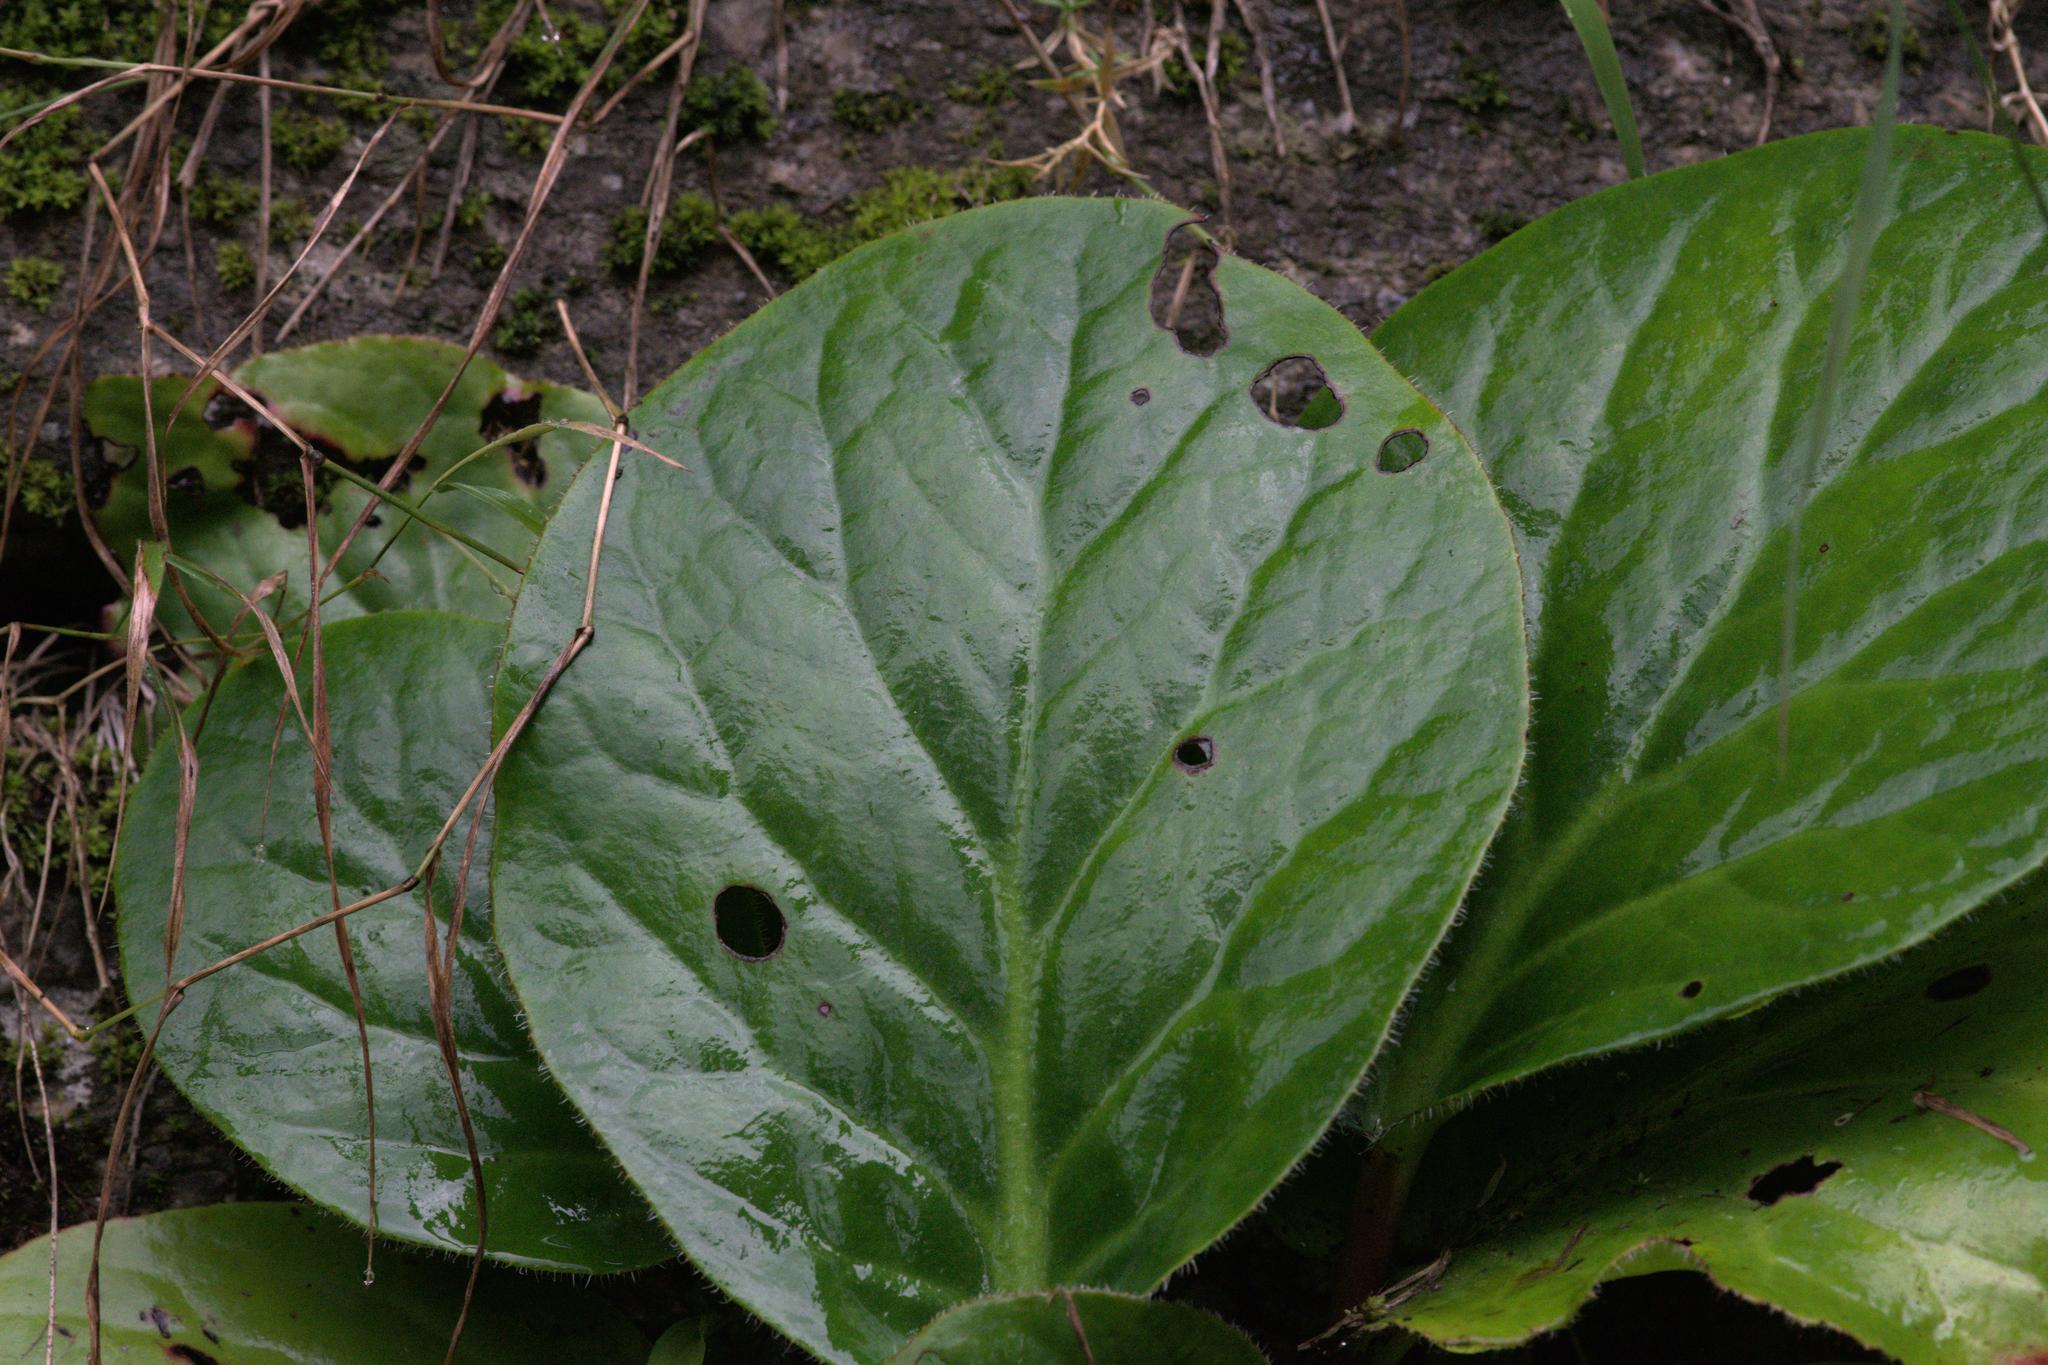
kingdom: Plantae
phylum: Tracheophyta
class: Magnoliopsida
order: Saxifragales
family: Saxifragaceae
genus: Bergenia
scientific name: Bergenia ciliata
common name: Hairy bergenia
